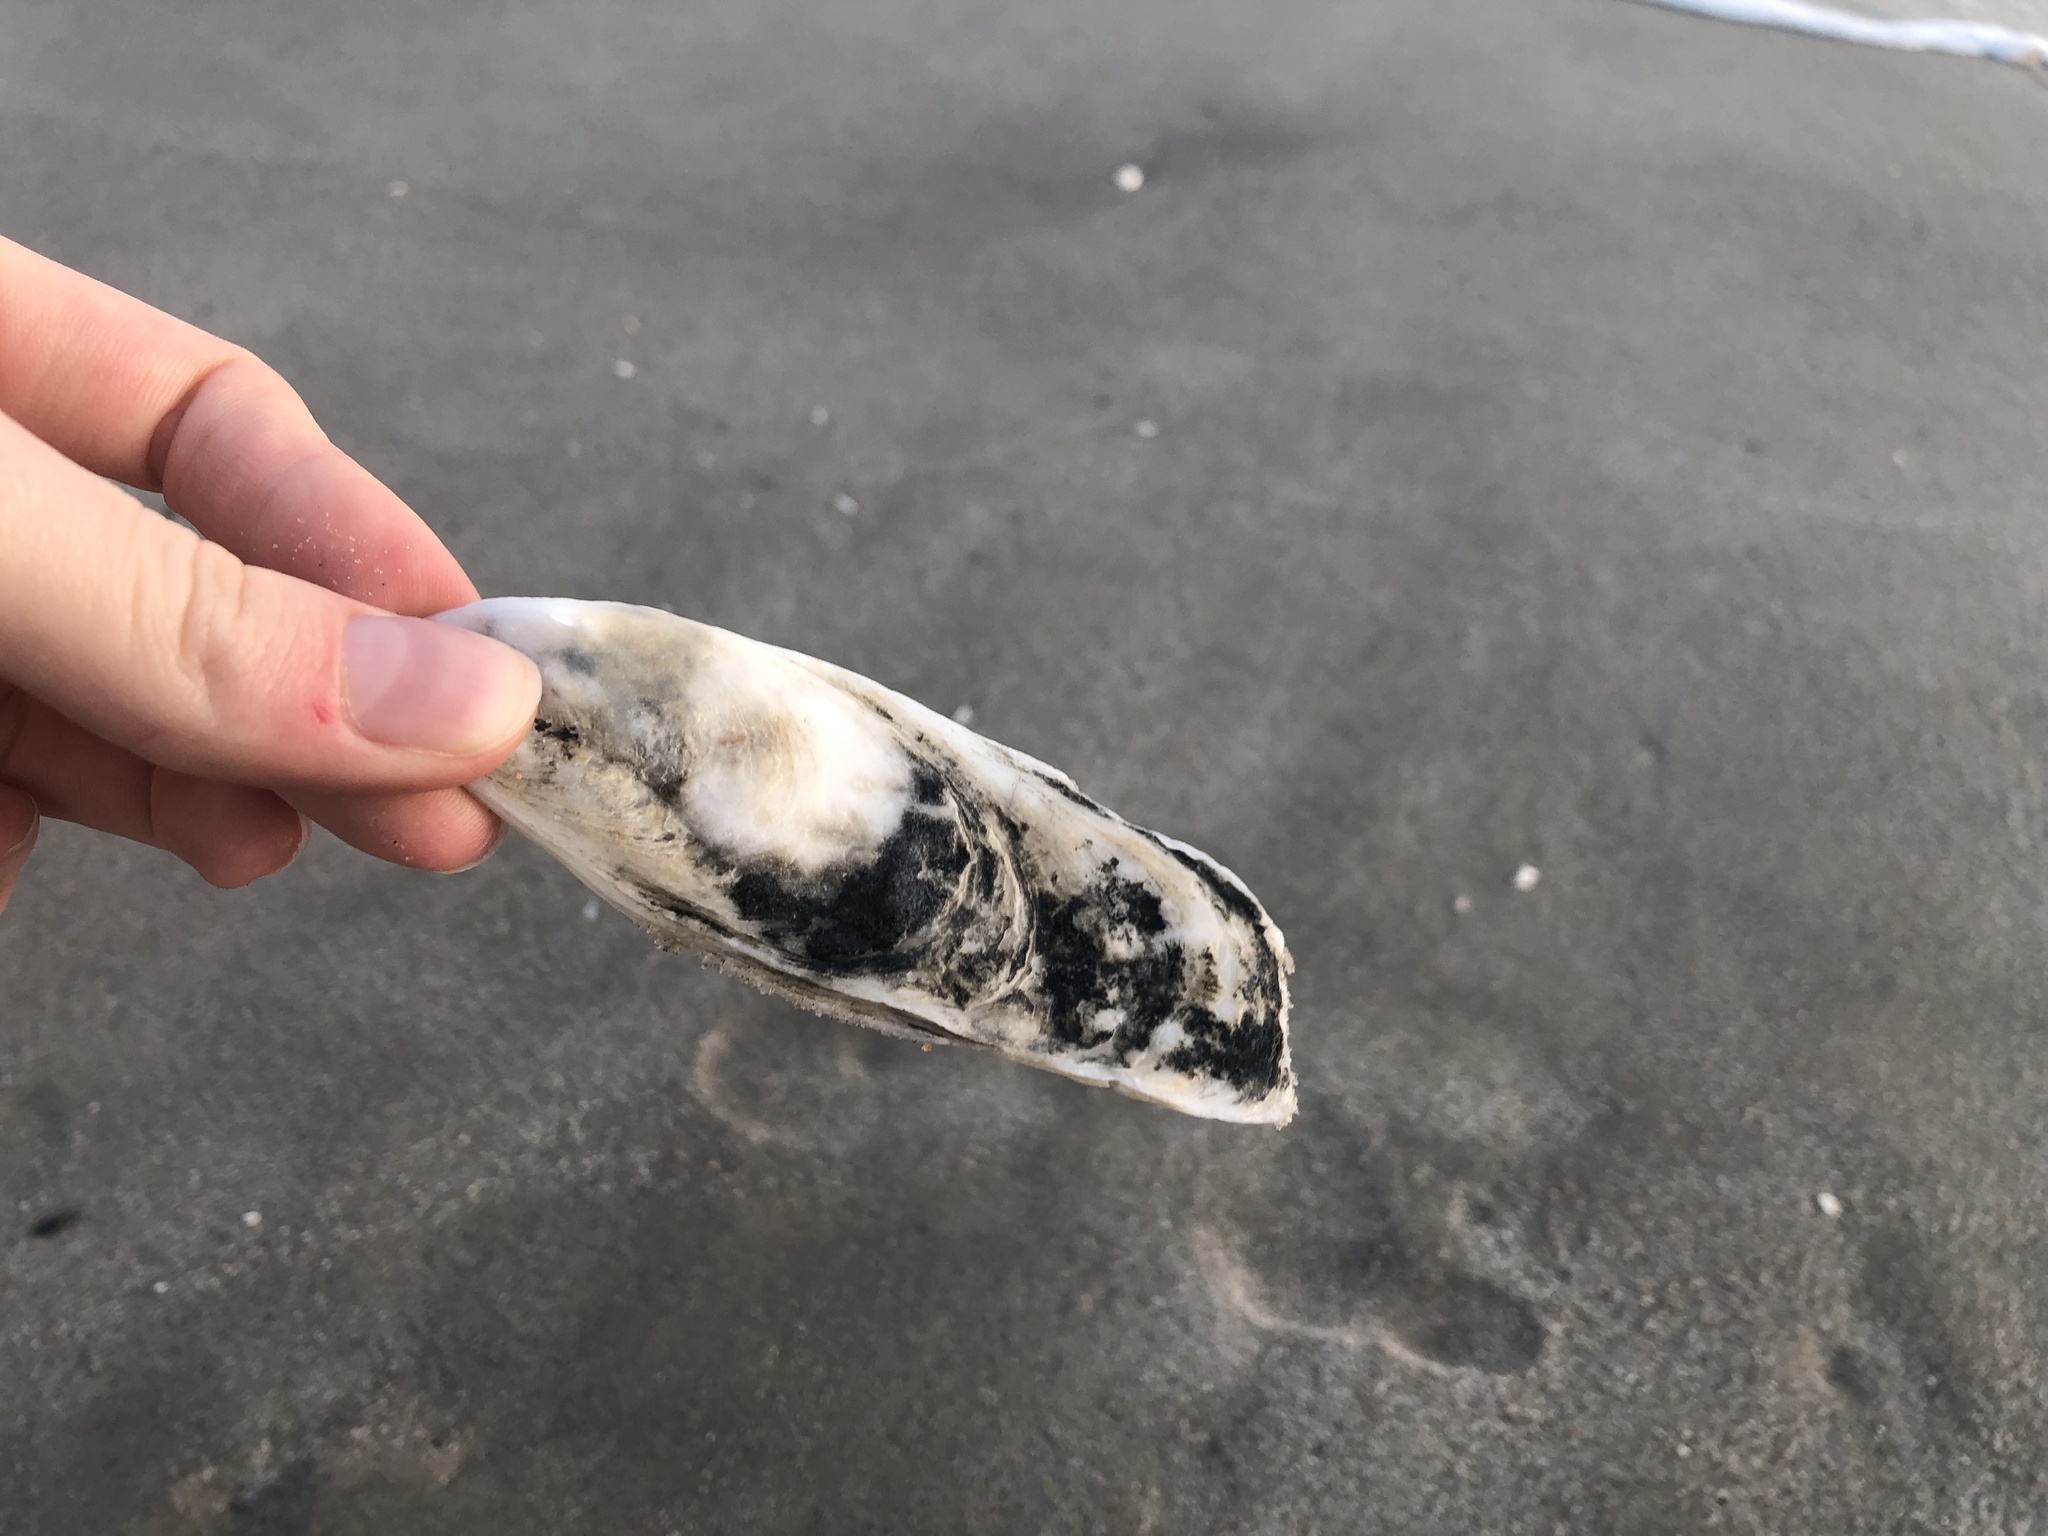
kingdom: Animalia
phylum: Mollusca
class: Bivalvia
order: Ostreida
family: Ostreidae
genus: Crassostrea
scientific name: Crassostrea virginica
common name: American oyster
